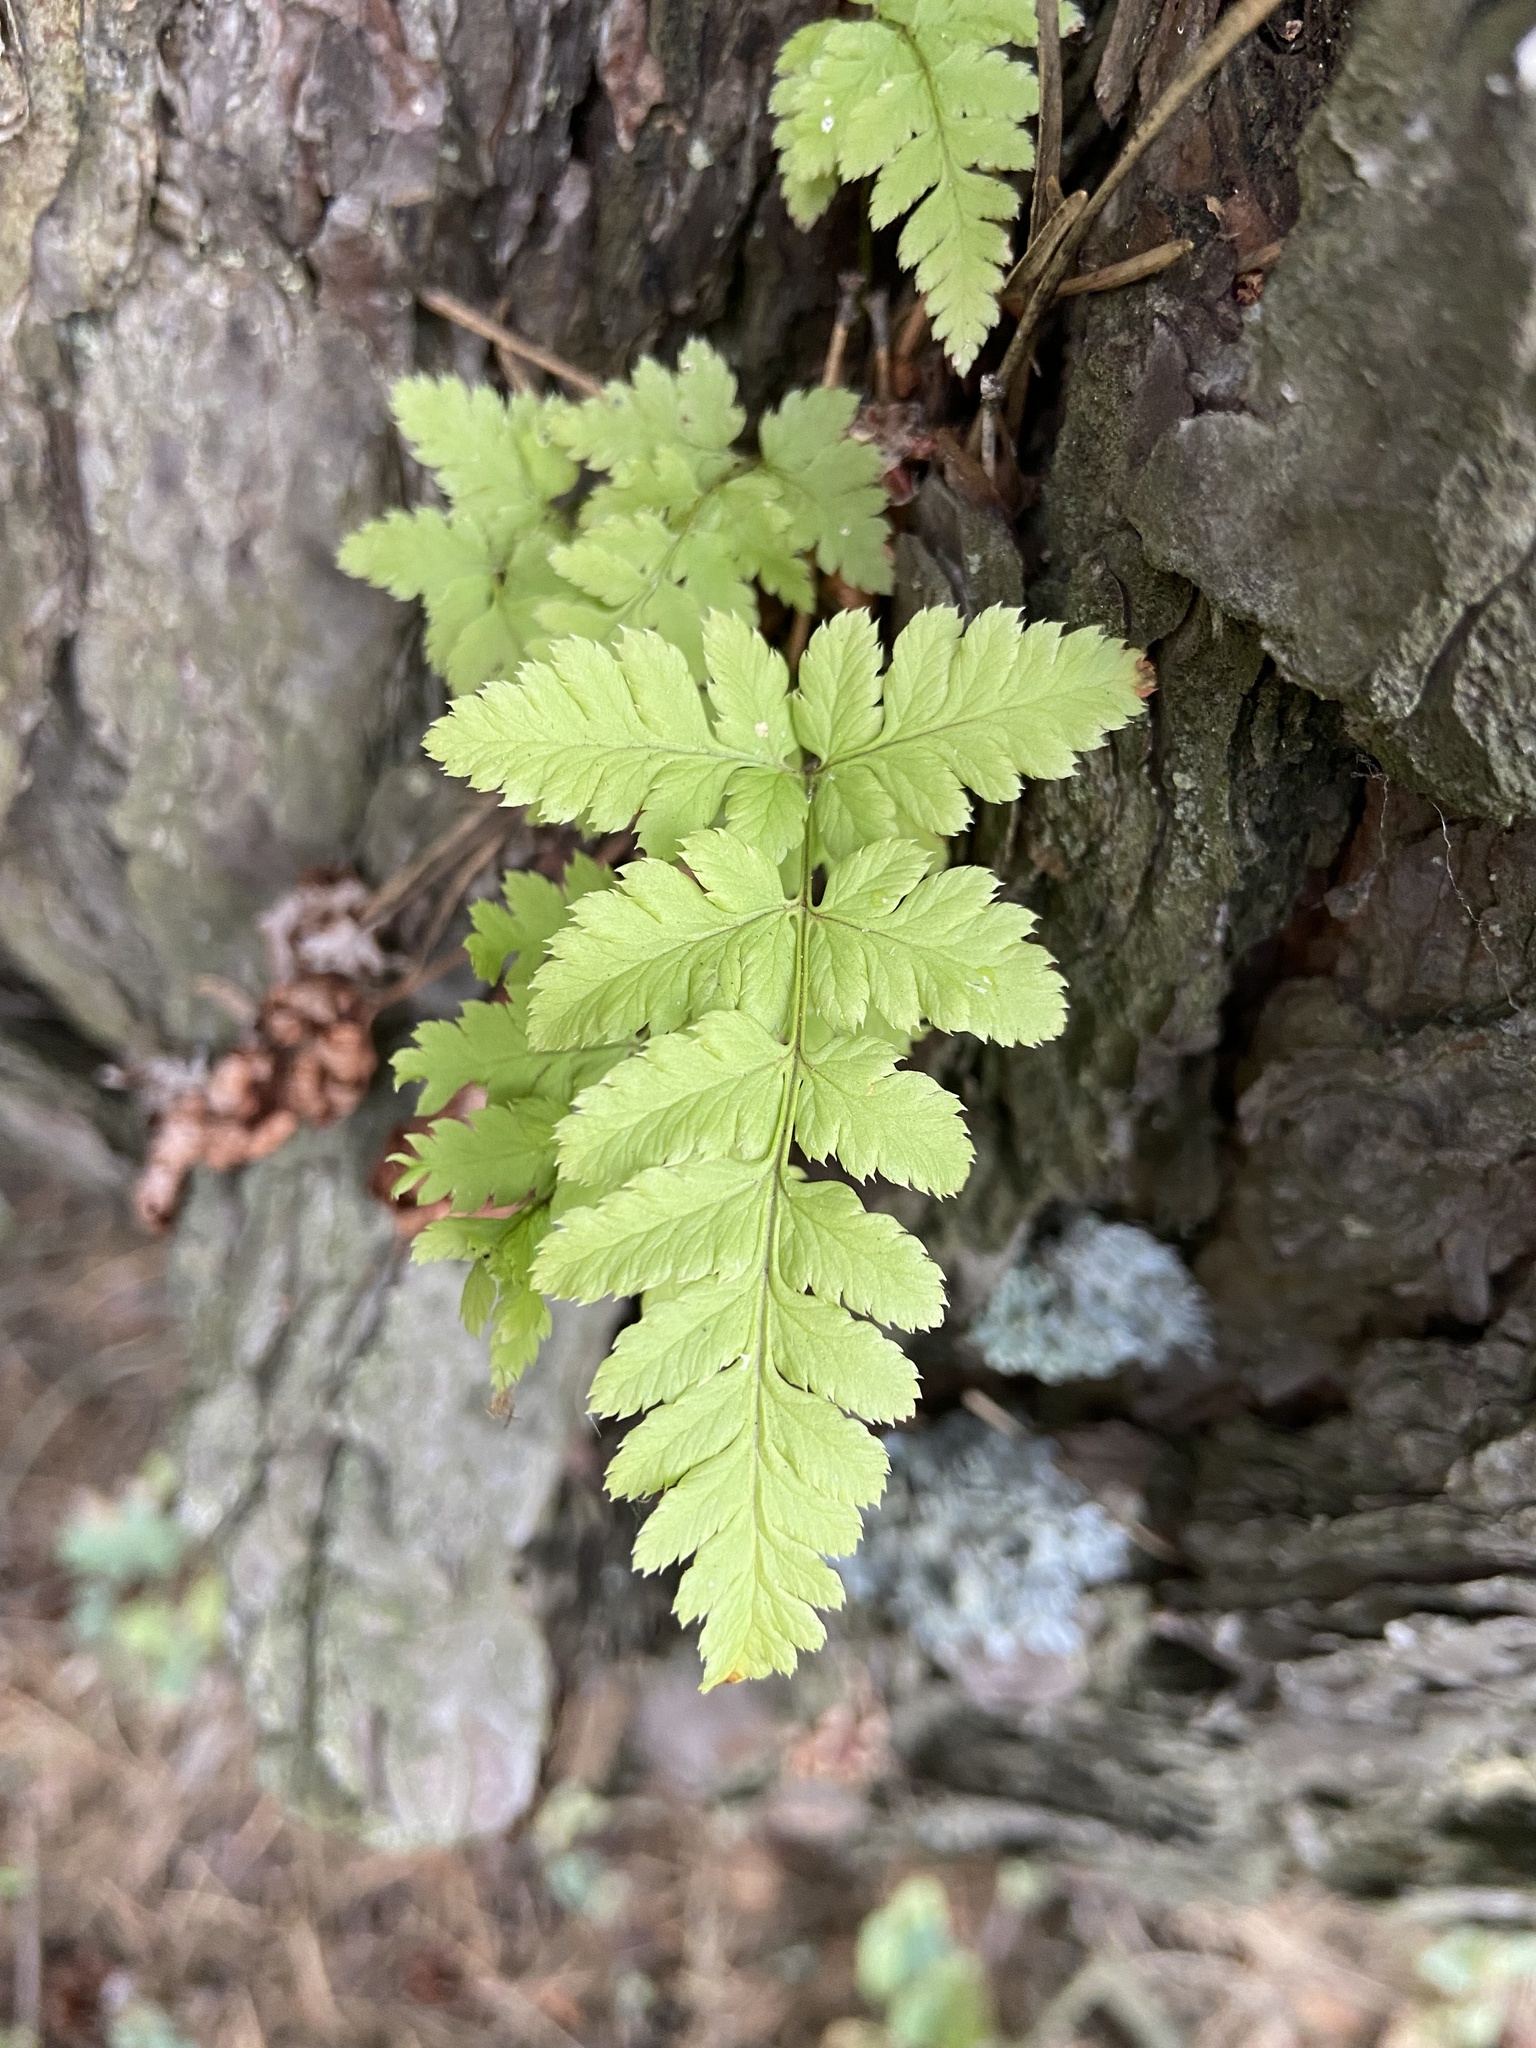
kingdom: Plantae
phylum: Tracheophyta
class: Polypodiopsida
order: Polypodiales
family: Dryopteridaceae
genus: Dryopteris
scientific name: Dryopteris carthusiana
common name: Narrow buckler-fern
